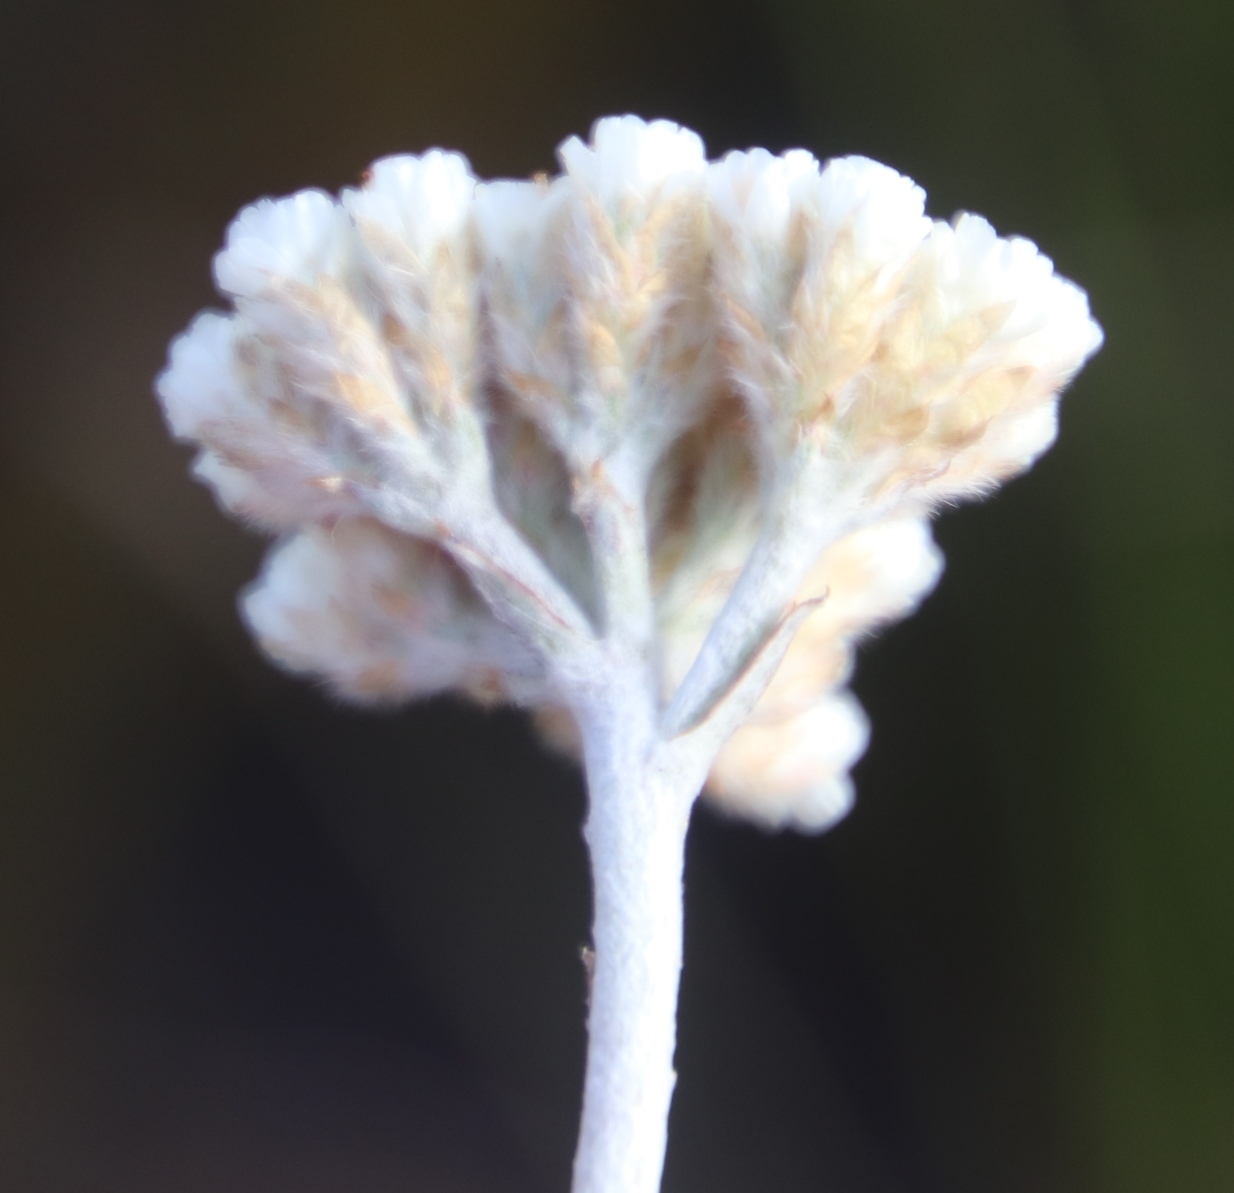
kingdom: Plantae
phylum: Tracheophyta
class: Magnoliopsida
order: Asterales
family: Asteraceae
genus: Anaxeton
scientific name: Anaxeton laeve
